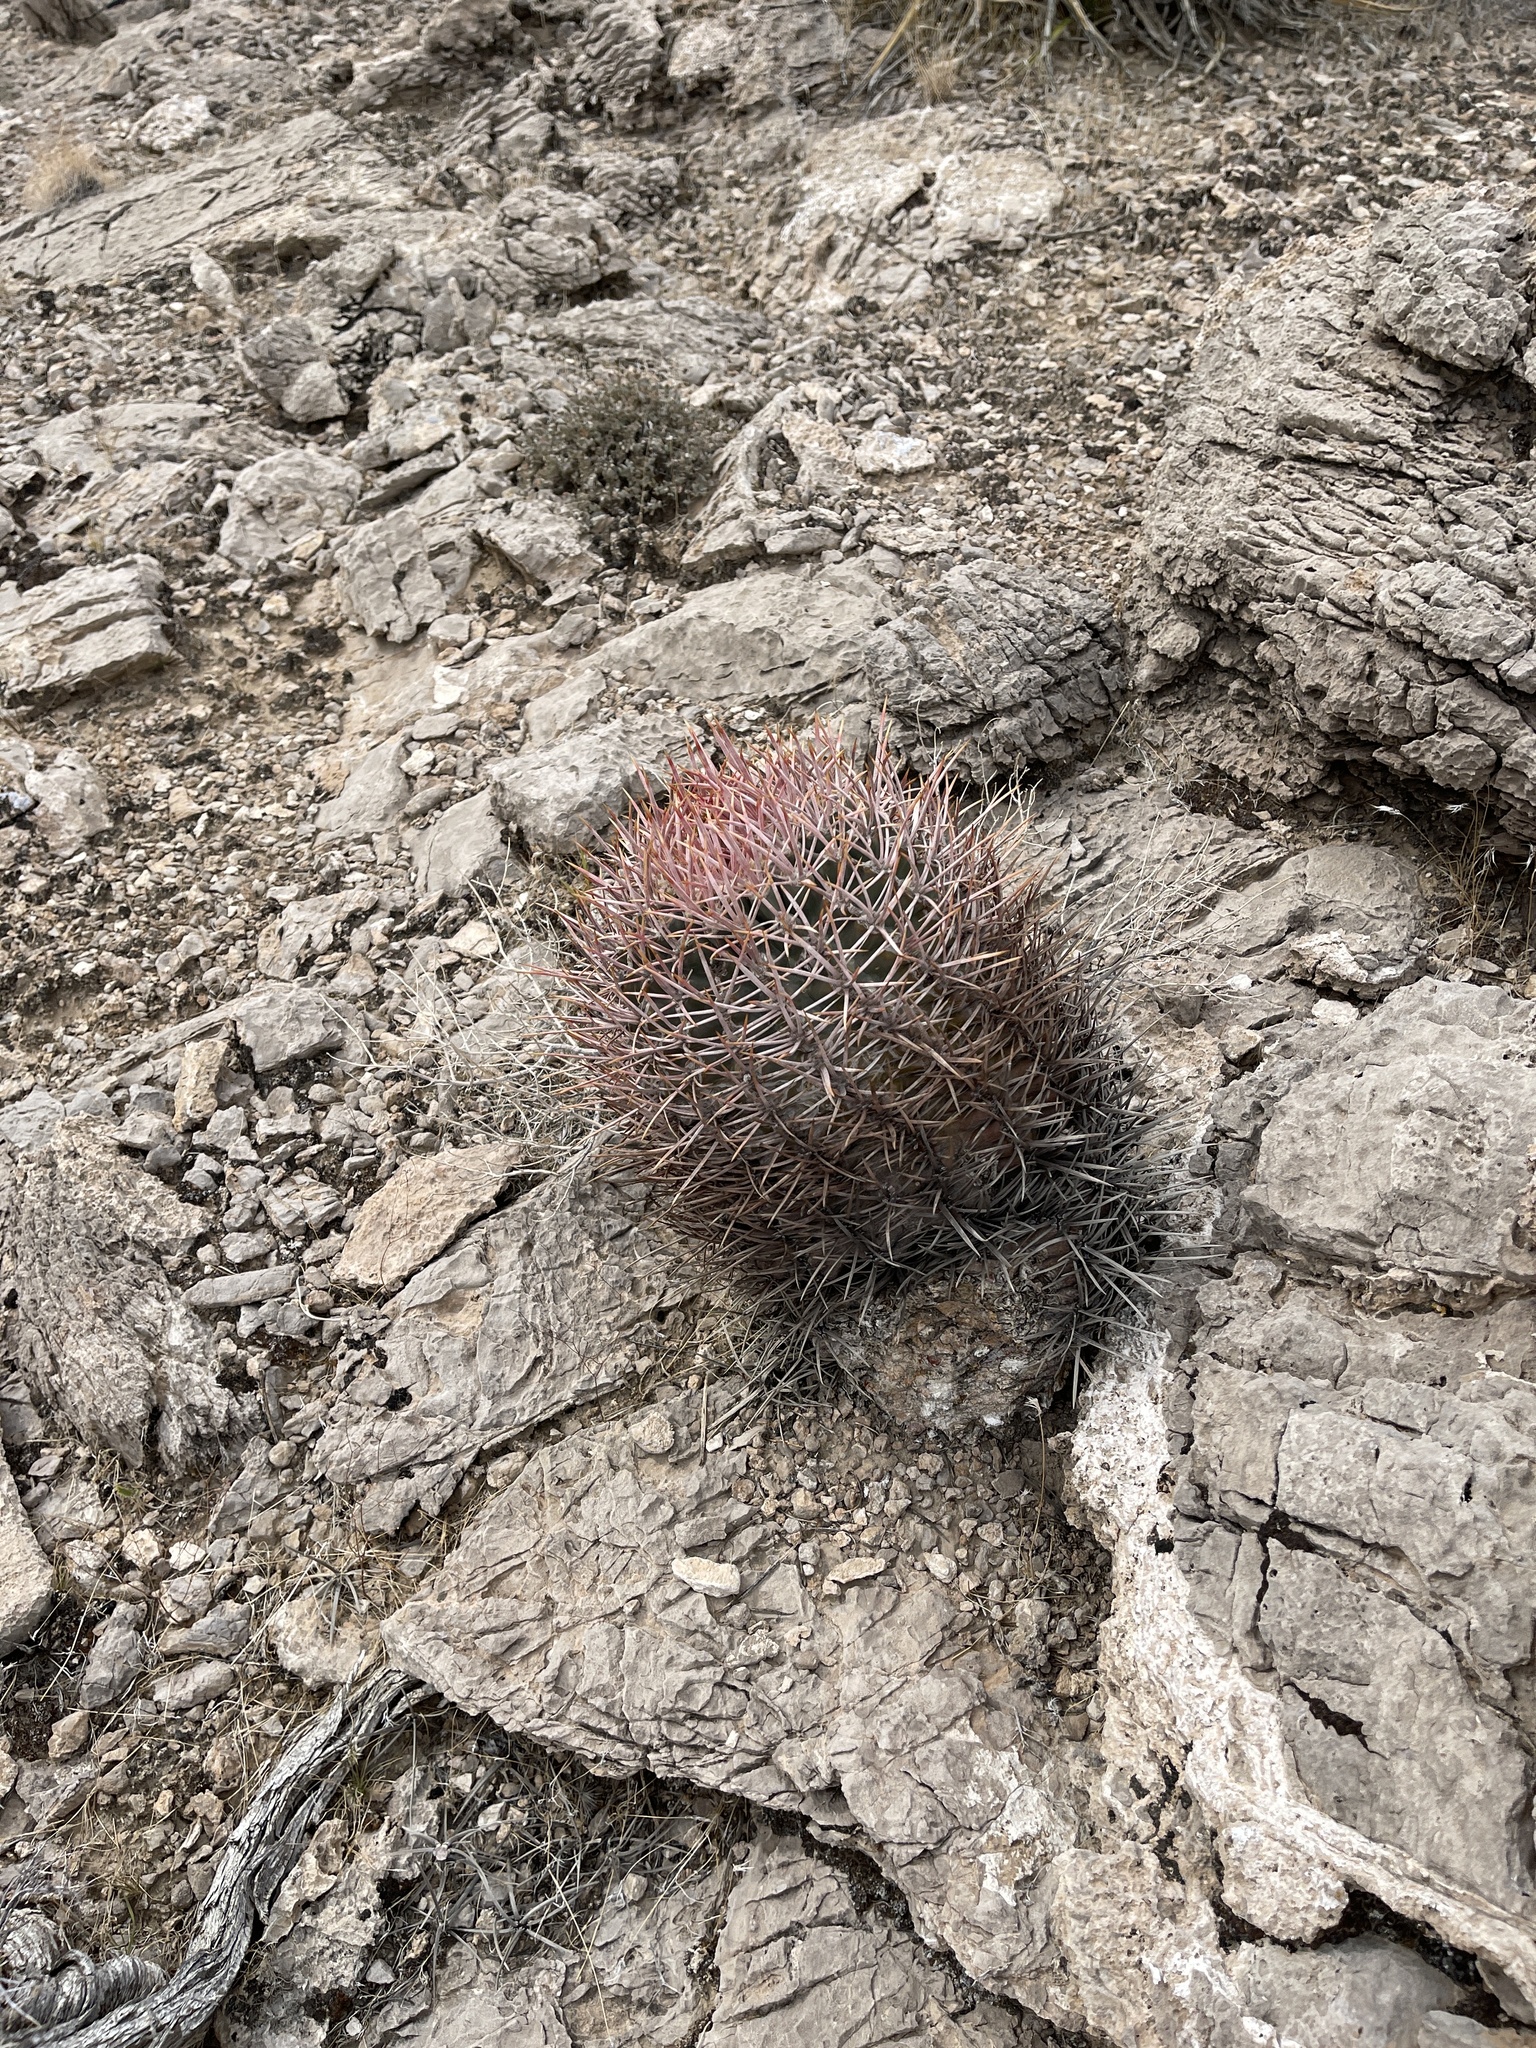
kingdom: Plantae
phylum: Tracheophyta
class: Magnoliopsida
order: Caryophyllales
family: Cactaceae
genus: Echinocactus
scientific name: Echinocactus polycephalus
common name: Cottontop cactus
